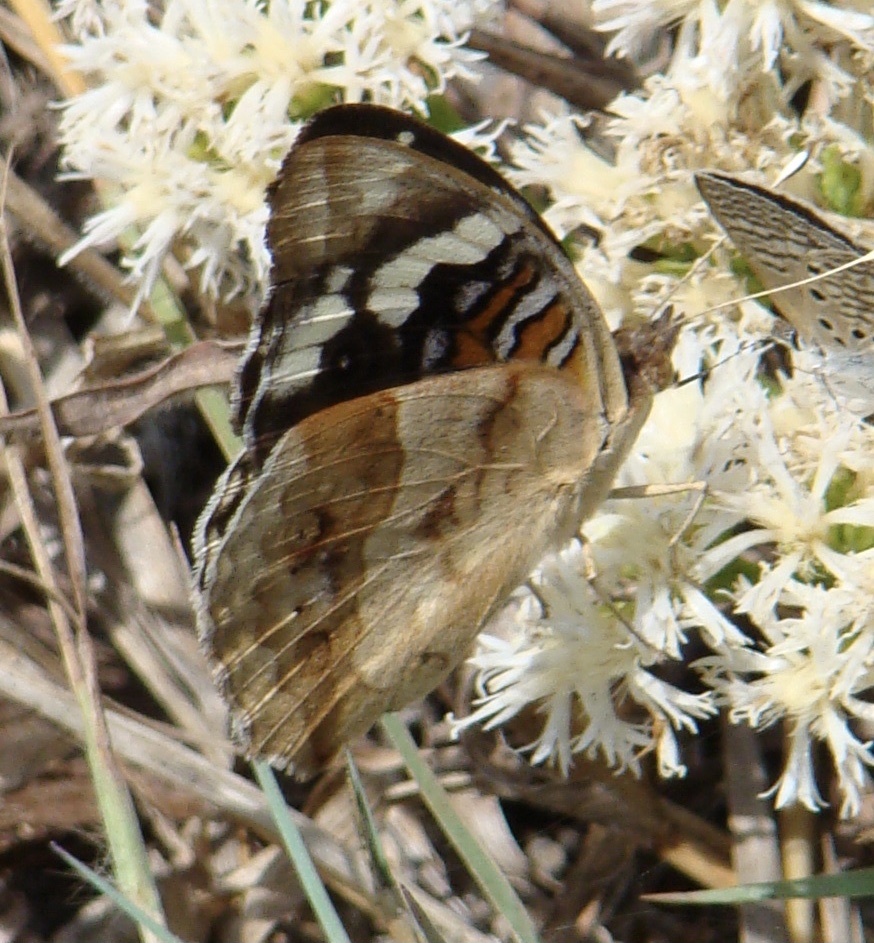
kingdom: Animalia
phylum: Arthropoda
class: Insecta
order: Lepidoptera
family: Nymphalidae
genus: Junonia
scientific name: Junonia oenone
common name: Dark blue pansy
